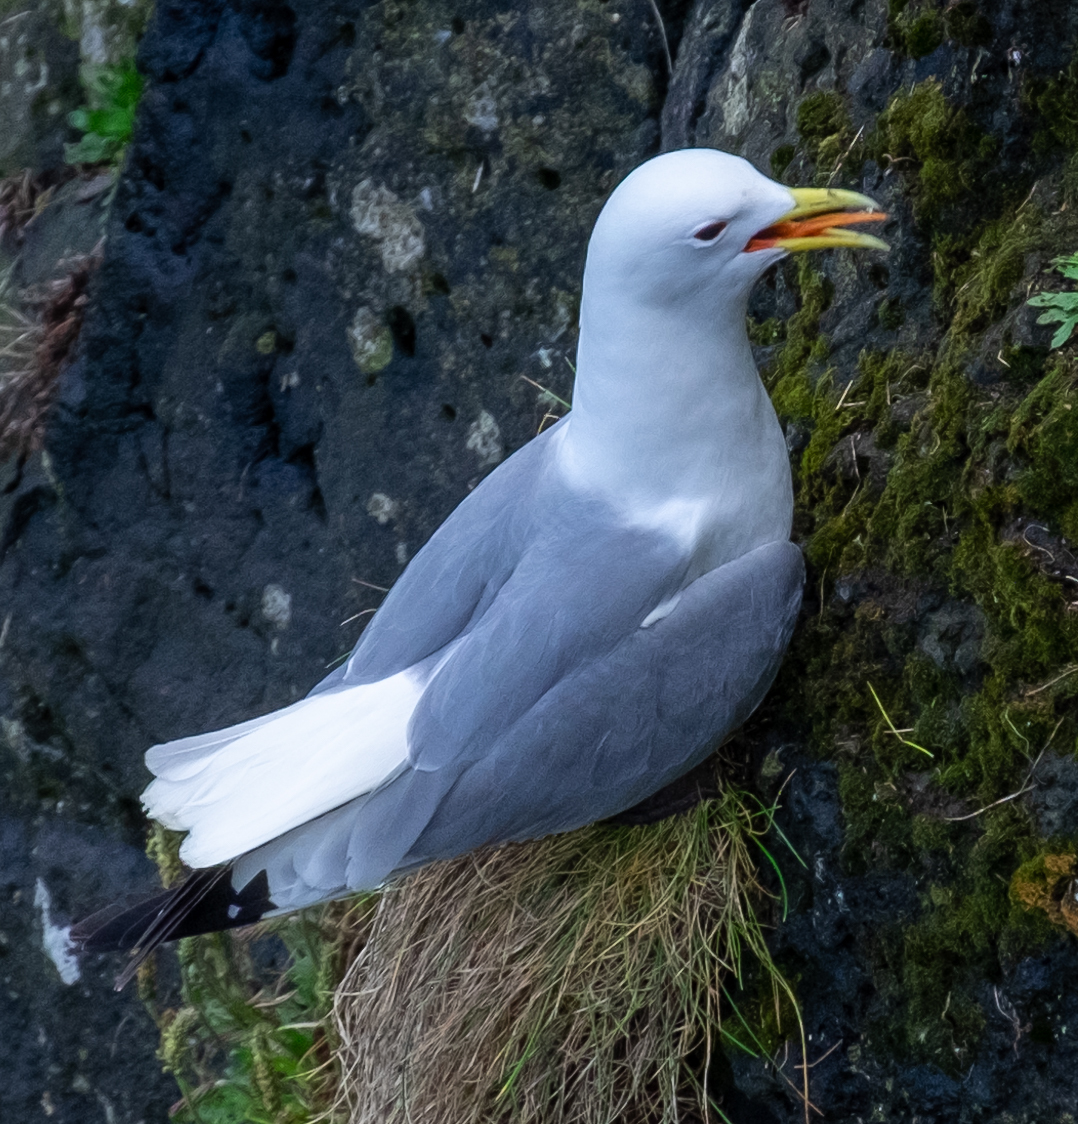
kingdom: Animalia
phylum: Chordata
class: Aves
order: Charadriiformes
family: Laridae
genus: Rissa
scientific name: Rissa tridactyla
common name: Black-legged kittiwake
